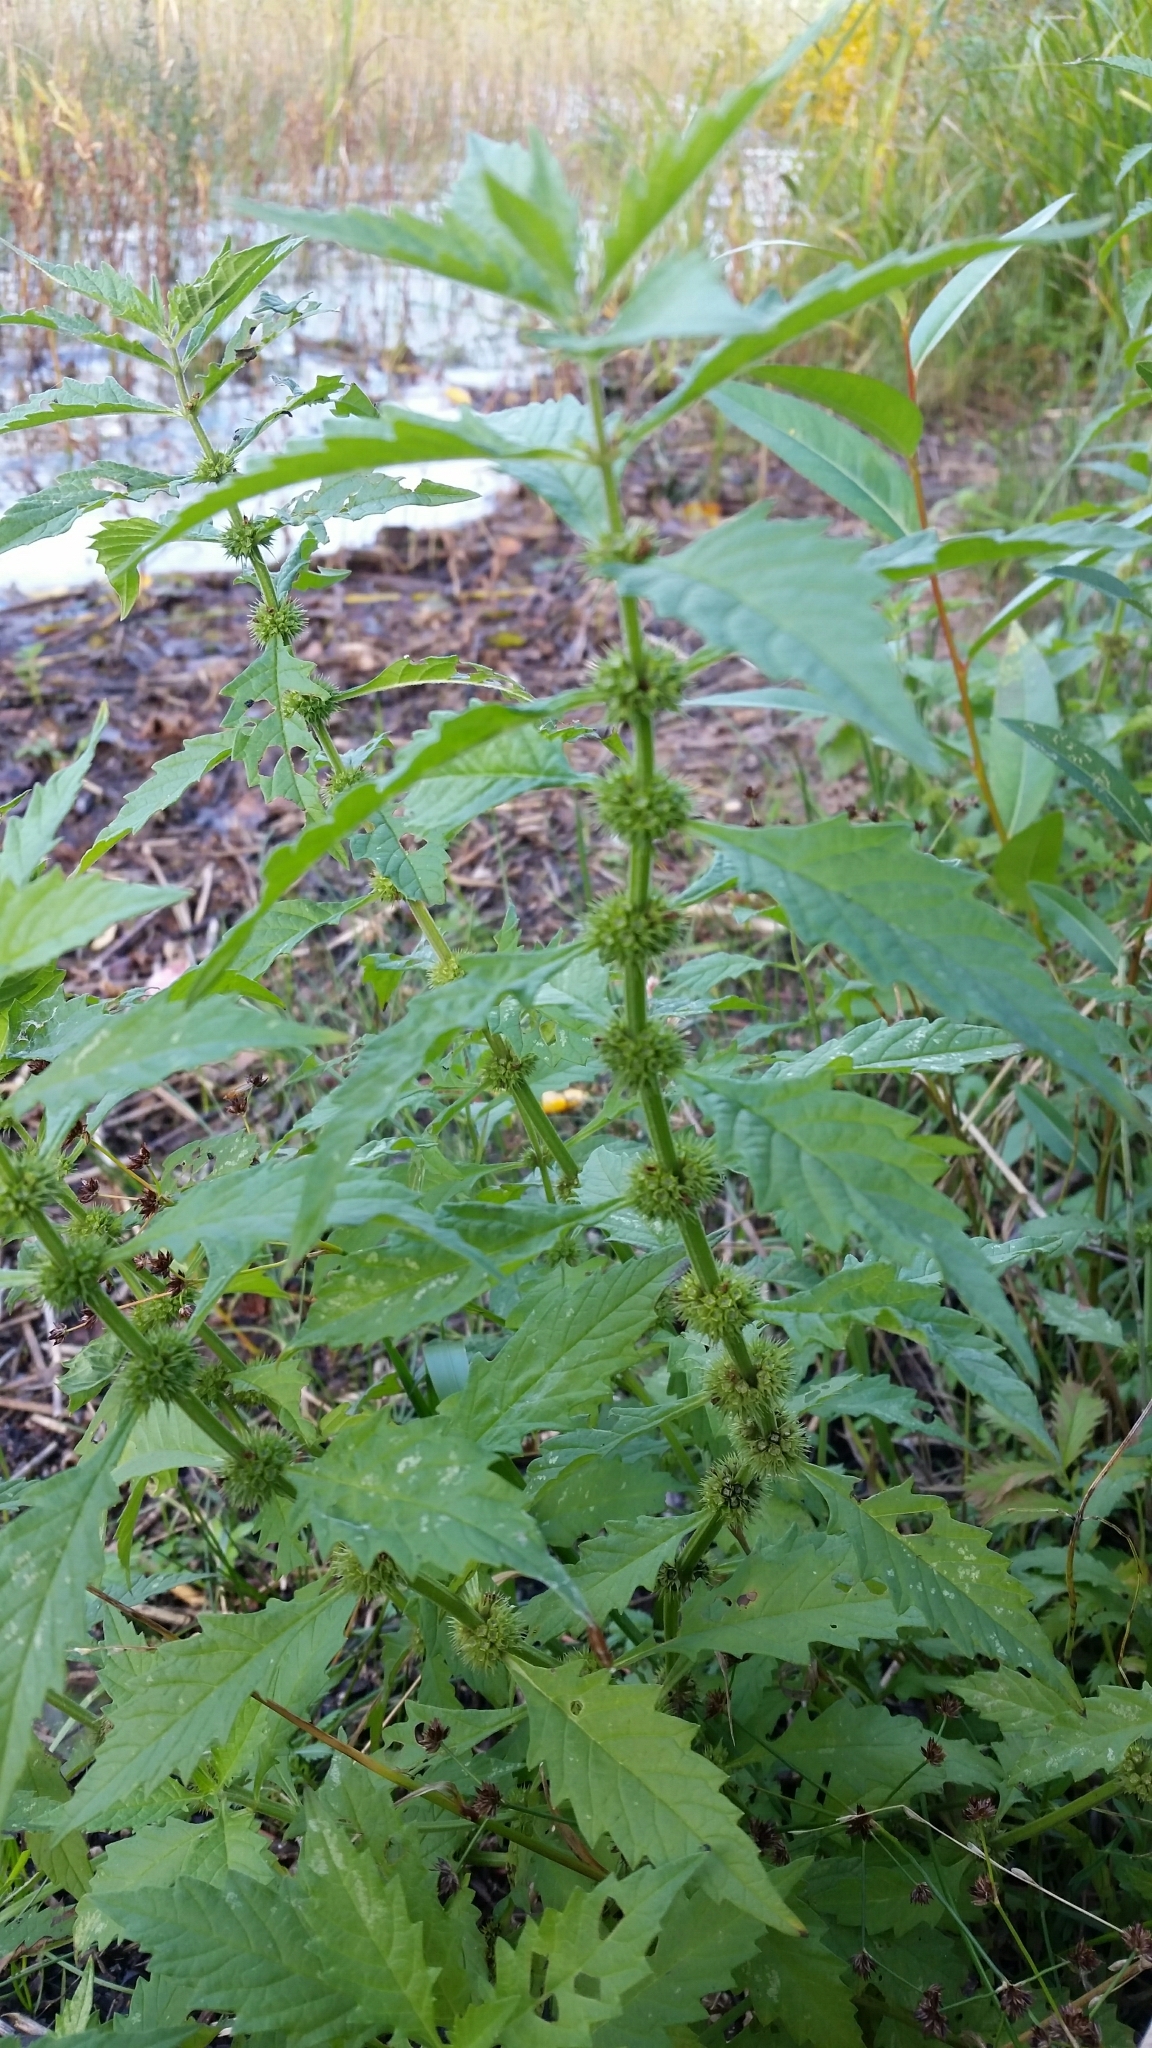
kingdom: Plantae
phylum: Tracheophyta
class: Magnoliopsida
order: Lamiales
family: Lamiaceae
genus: Lycopus
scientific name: Lycopus europaeus
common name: European bugleweed
